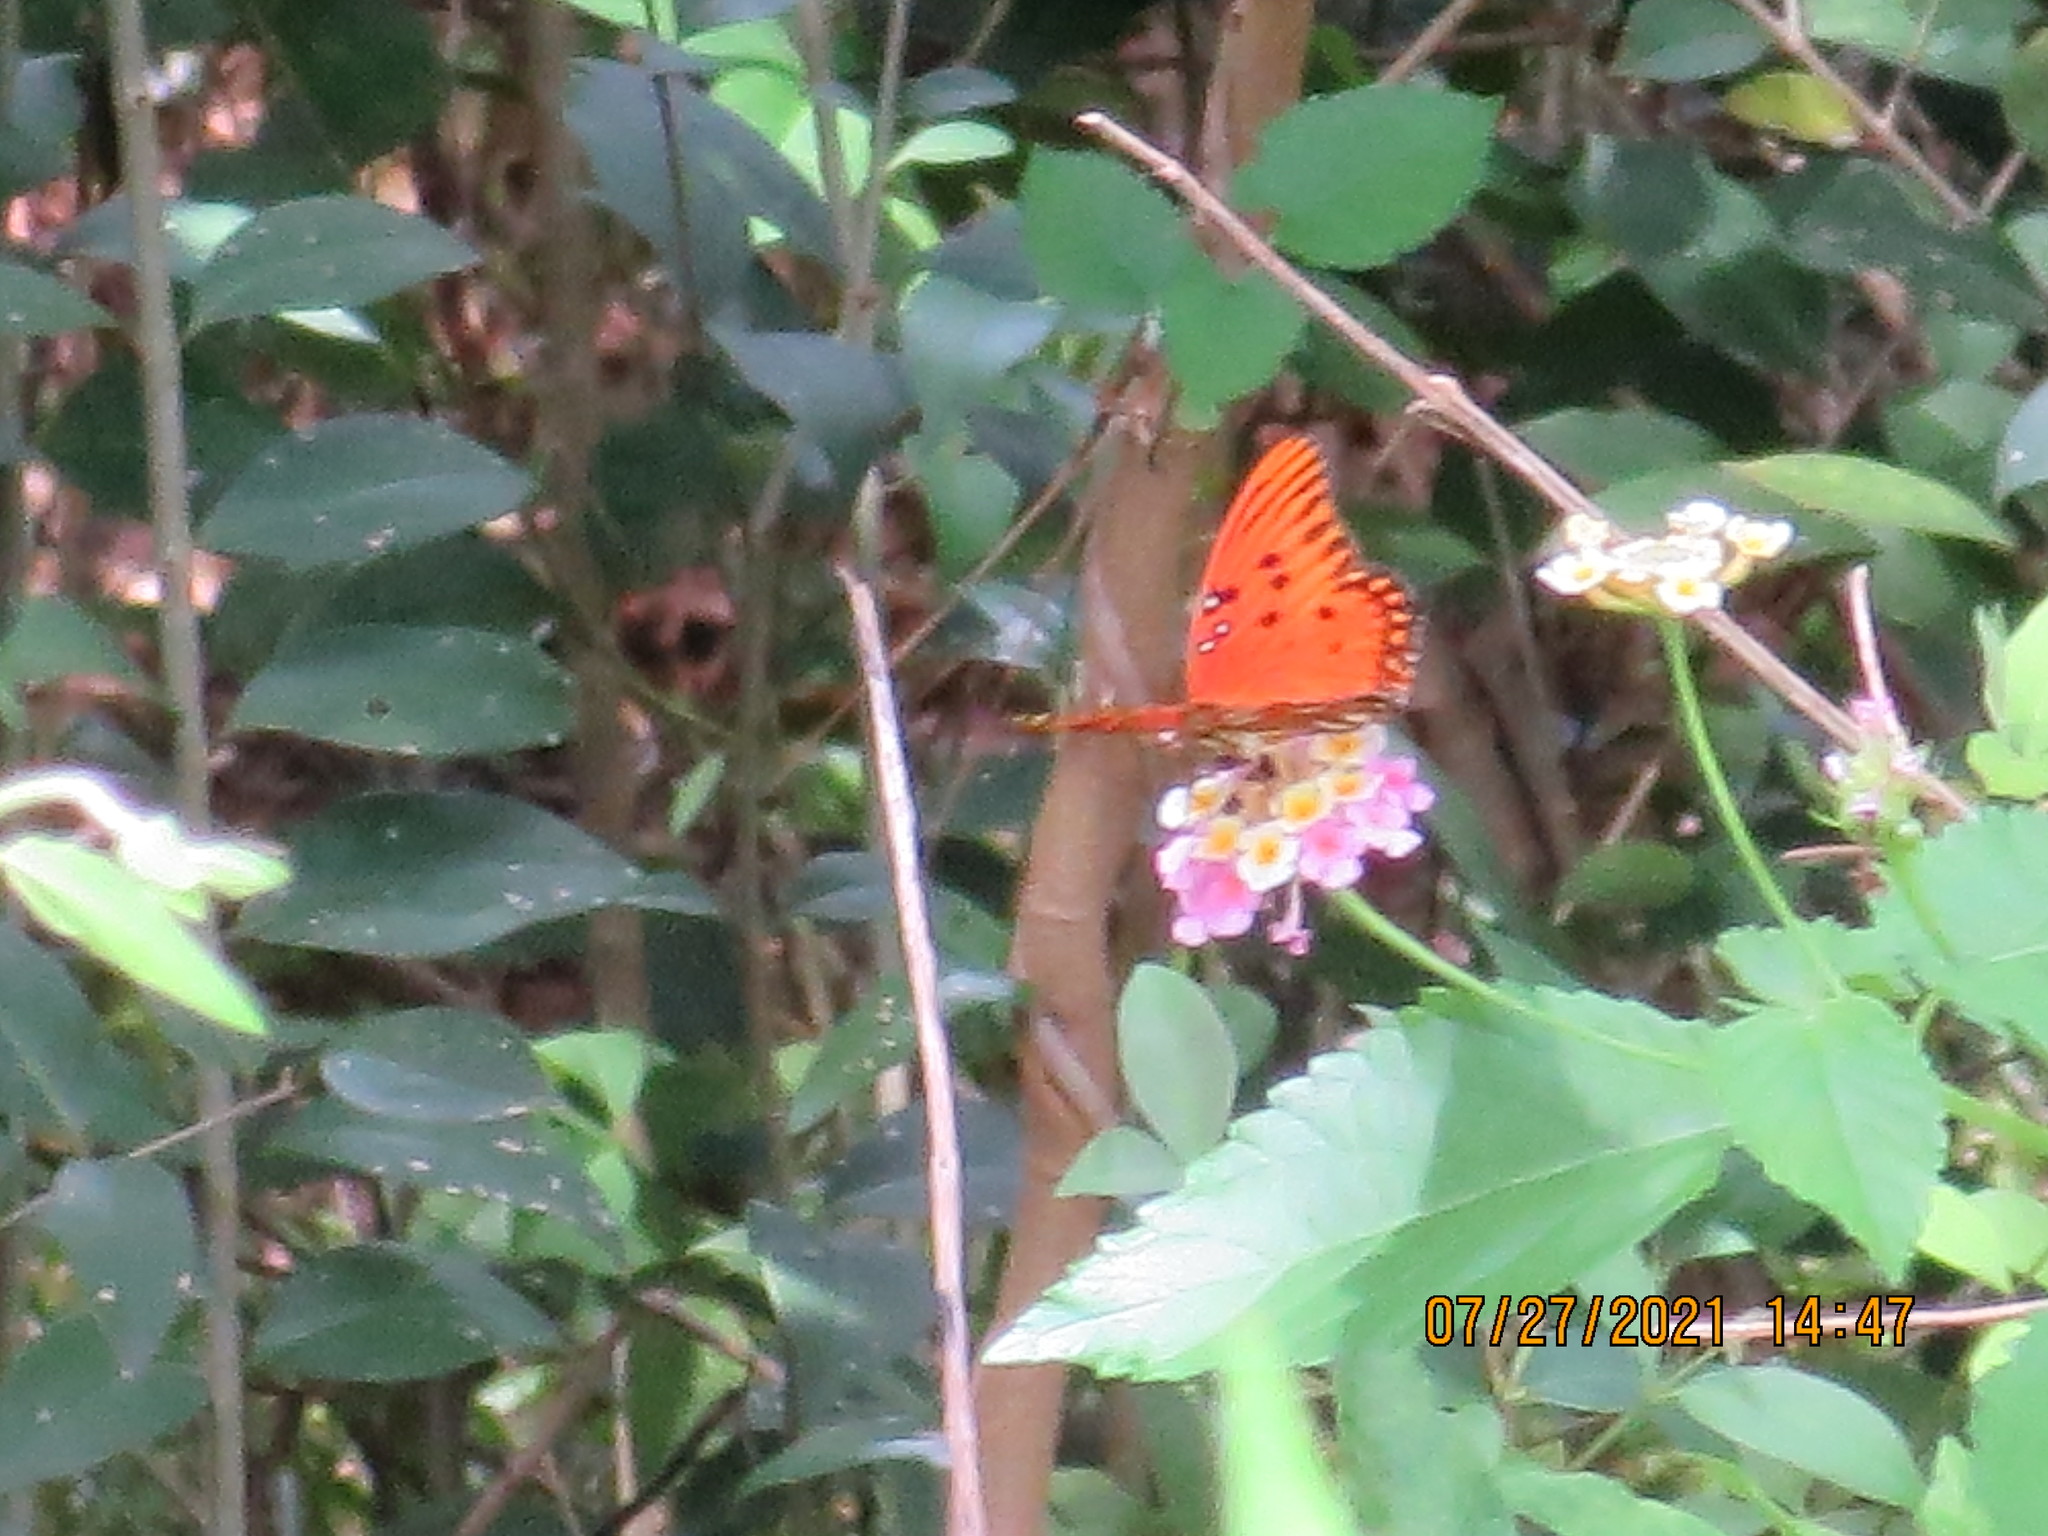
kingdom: Animalia
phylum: Arthropoda
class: Insecta
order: Lepidoptera
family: Nymphalidae
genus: Dione
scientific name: Dione vanillae
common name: Gulf fritillary
